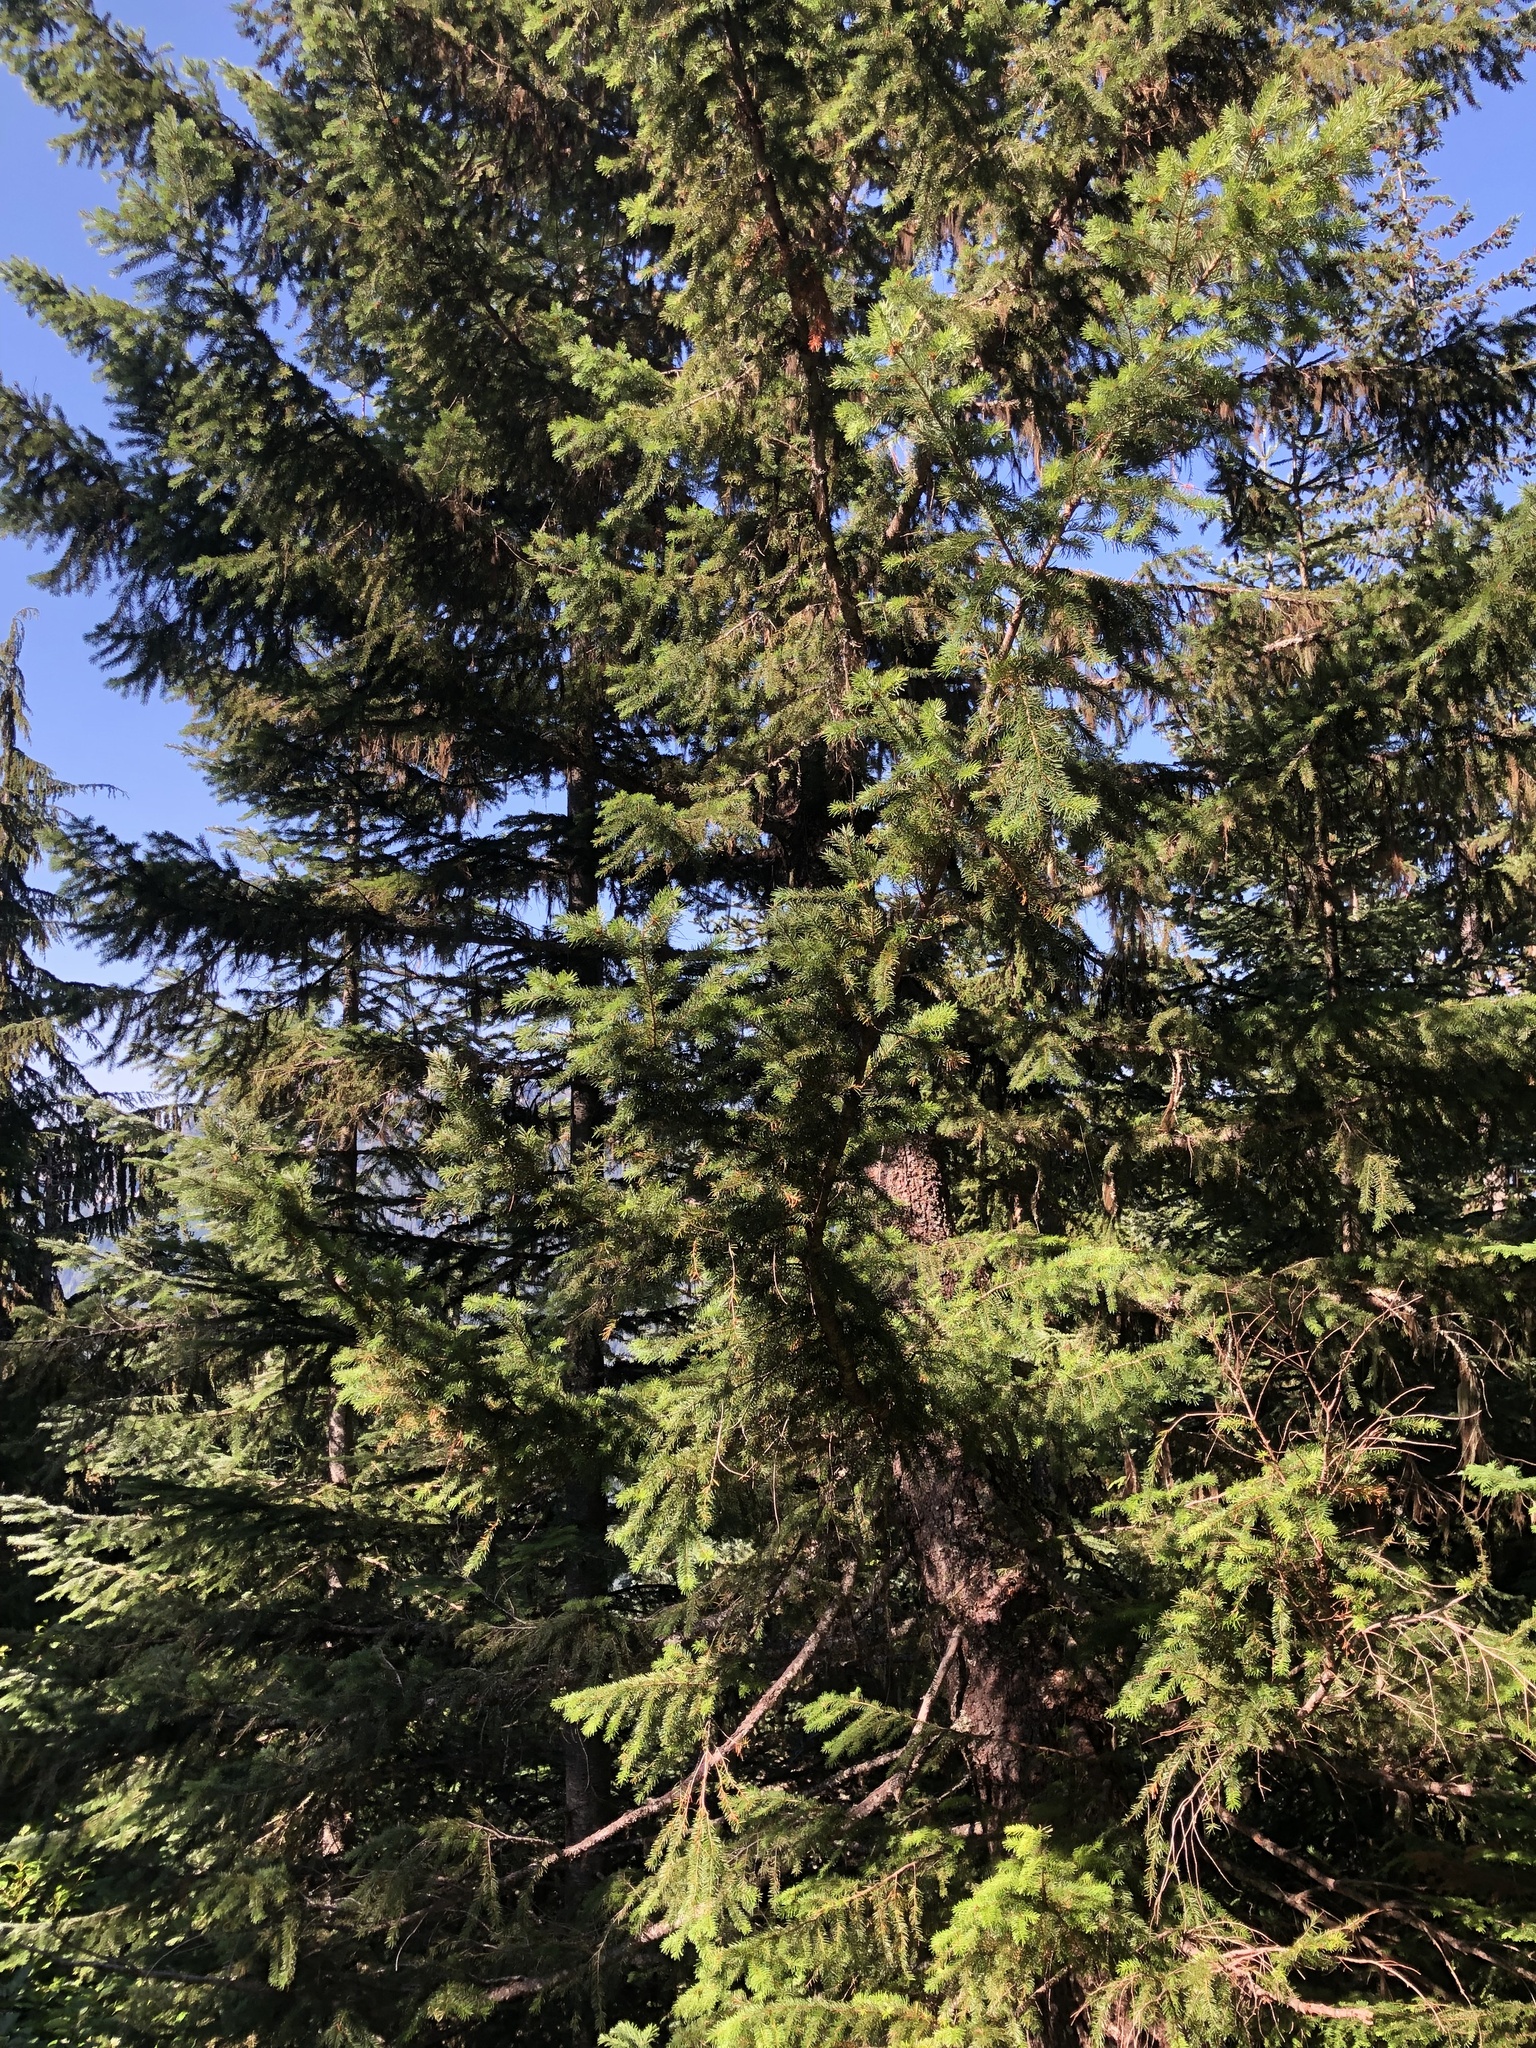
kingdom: Plantae
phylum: Tracheophyta
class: Pinopsida
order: Pinales
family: Pinaceae
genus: Pseudotsuga
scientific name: Pseudotsuga menziesii
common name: Douglas fir
